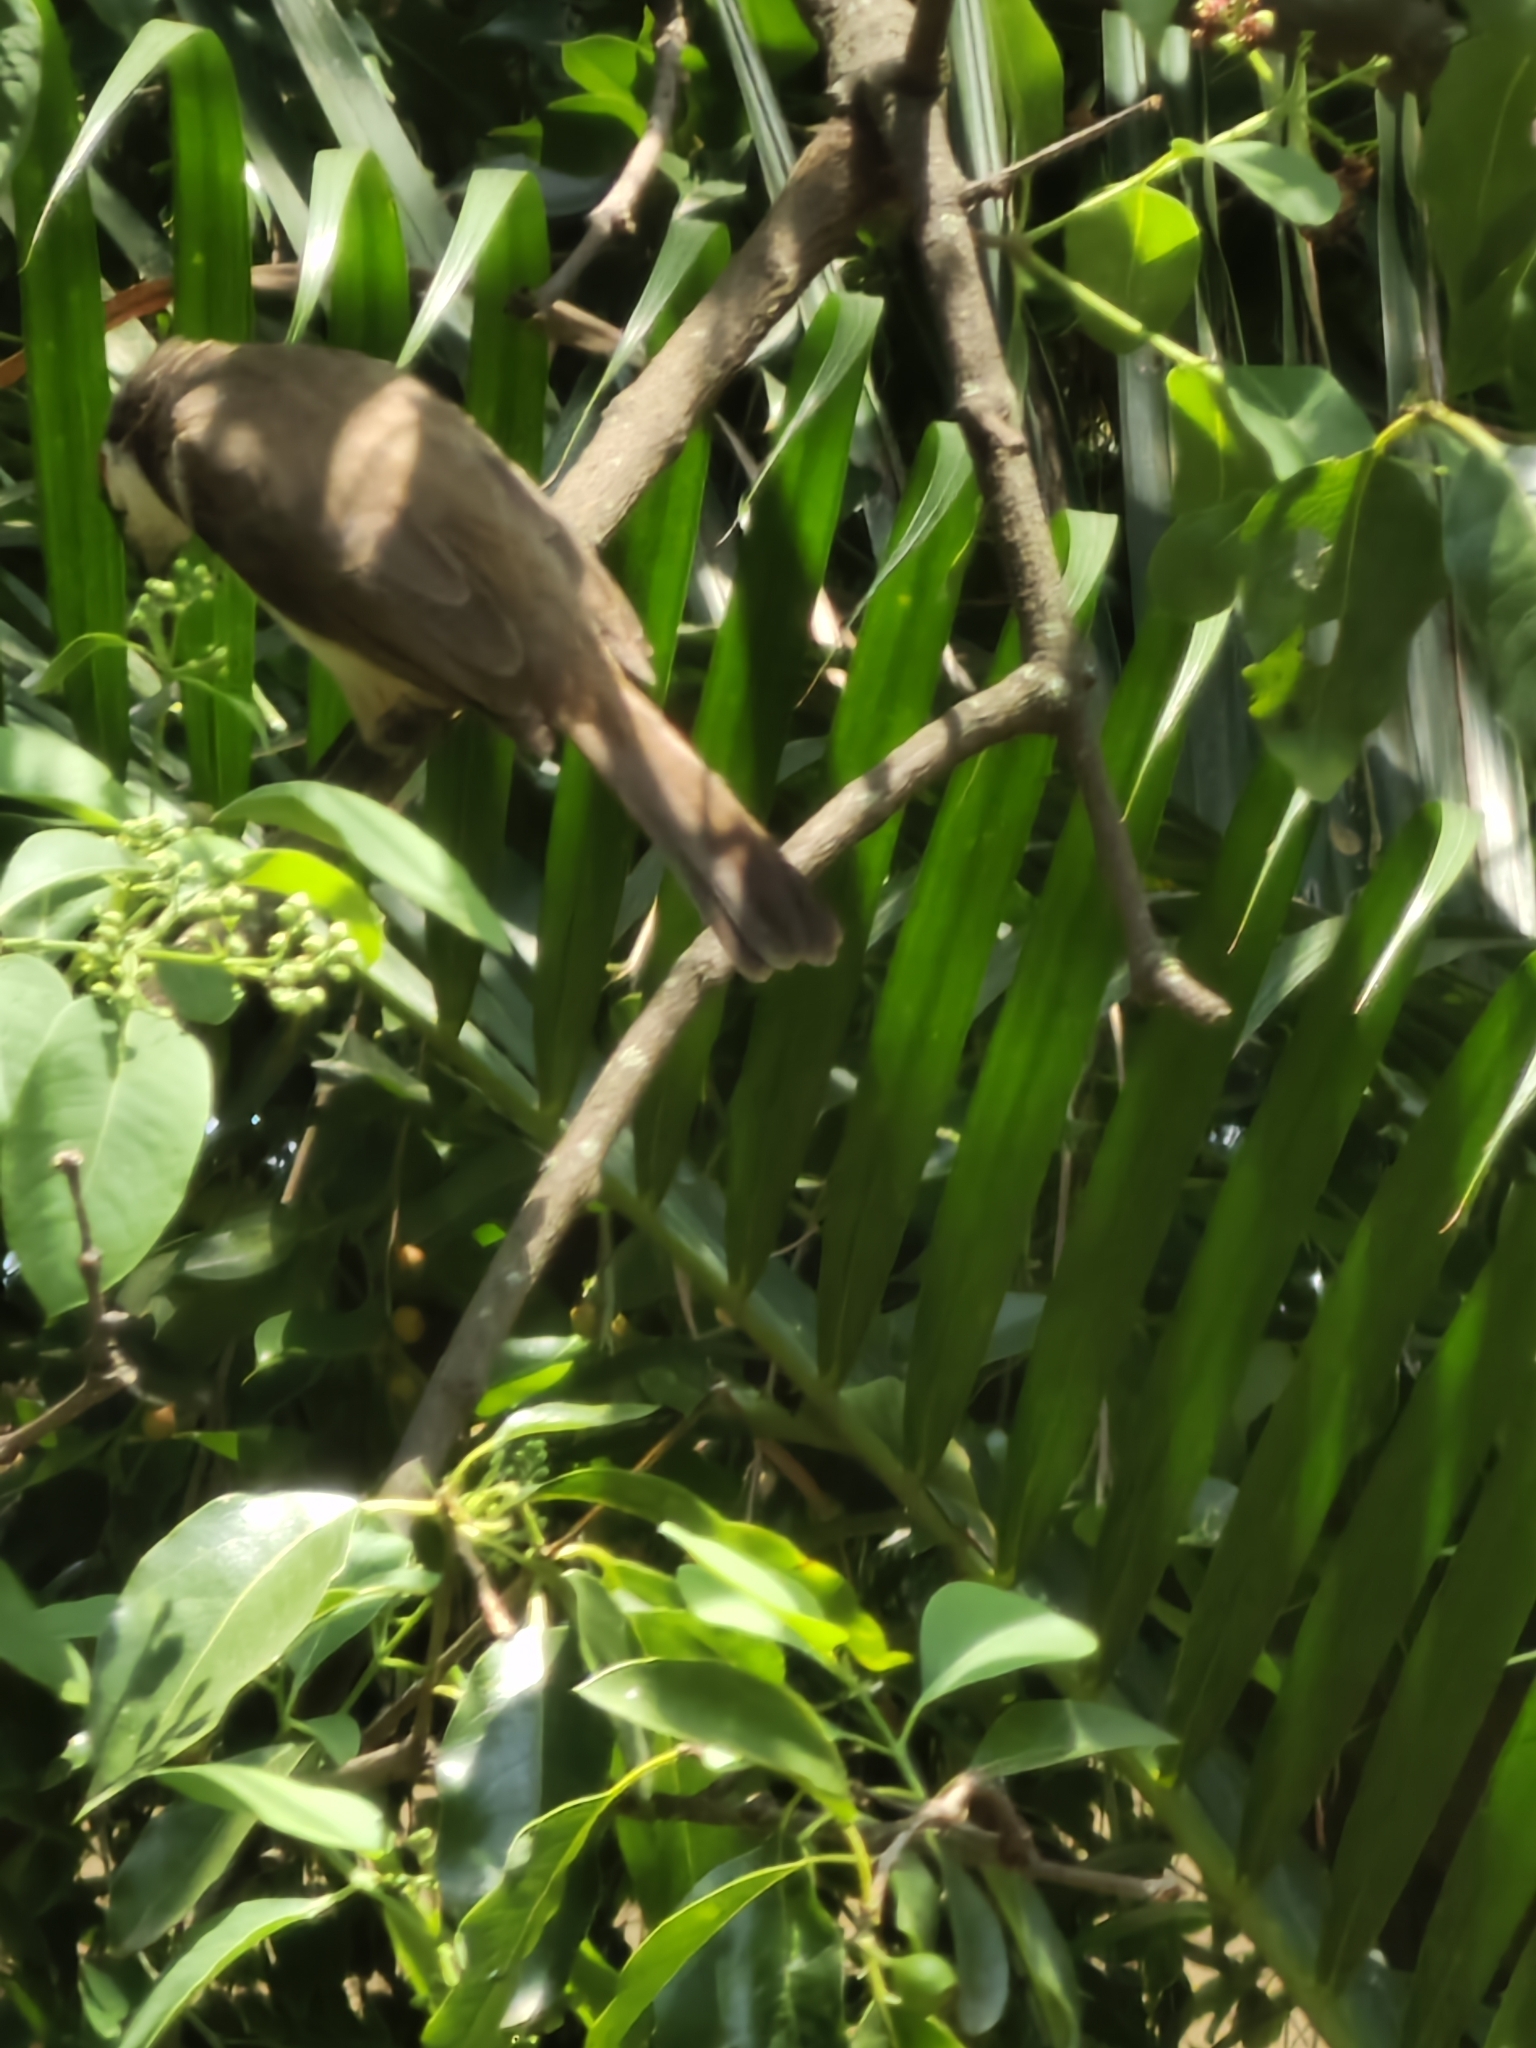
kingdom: Animalia
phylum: Chordata
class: Aves
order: Passeriformes
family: Pycnonotidae
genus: Pycnonotus
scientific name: Pycnonotus jocosus
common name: Red-whiskered bulbul
